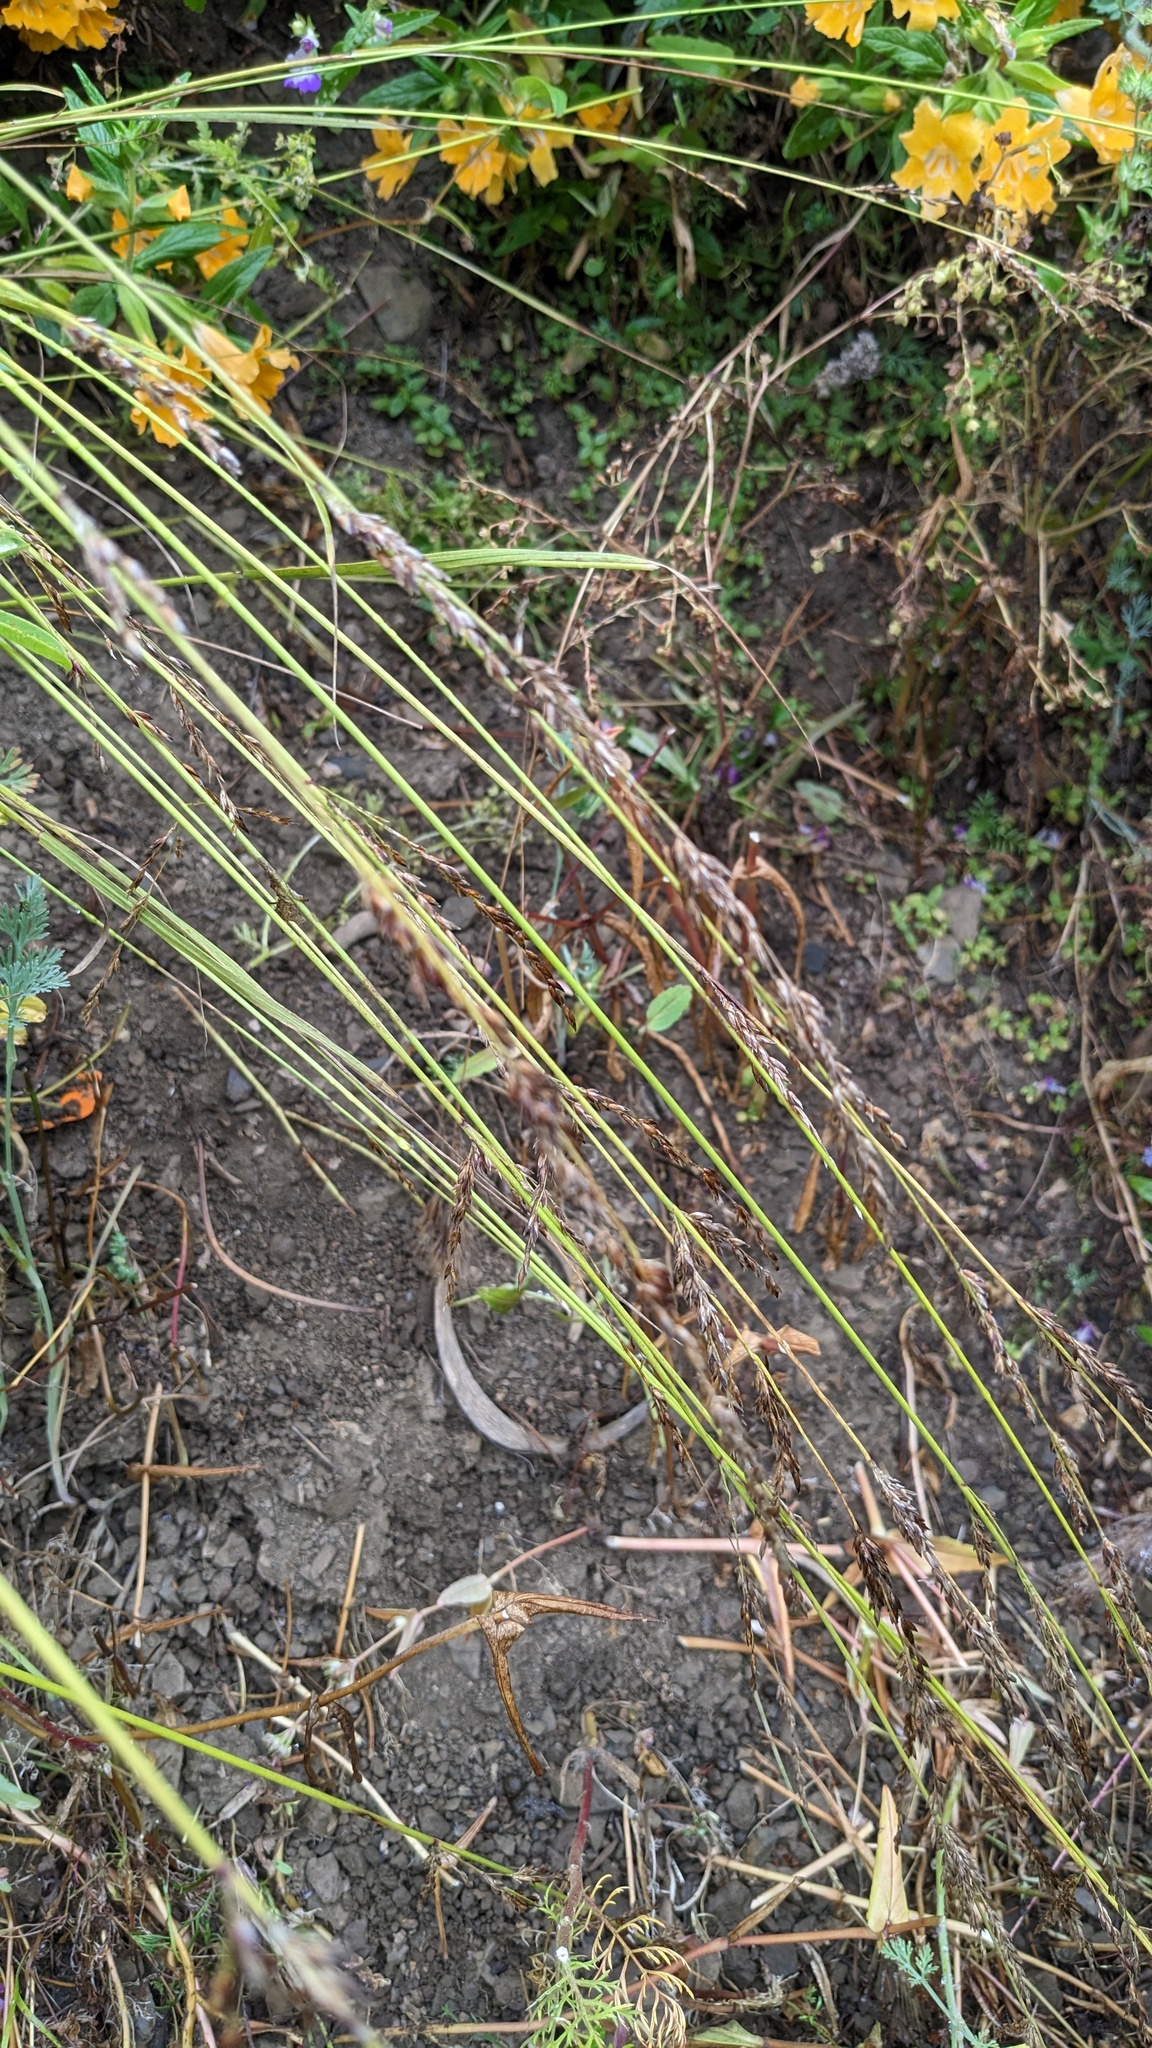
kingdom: Plantae
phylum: Tracheophyta
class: Liliopsida
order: Poales
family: Poaceae
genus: Melica
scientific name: Melica imperfecta
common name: California melic
